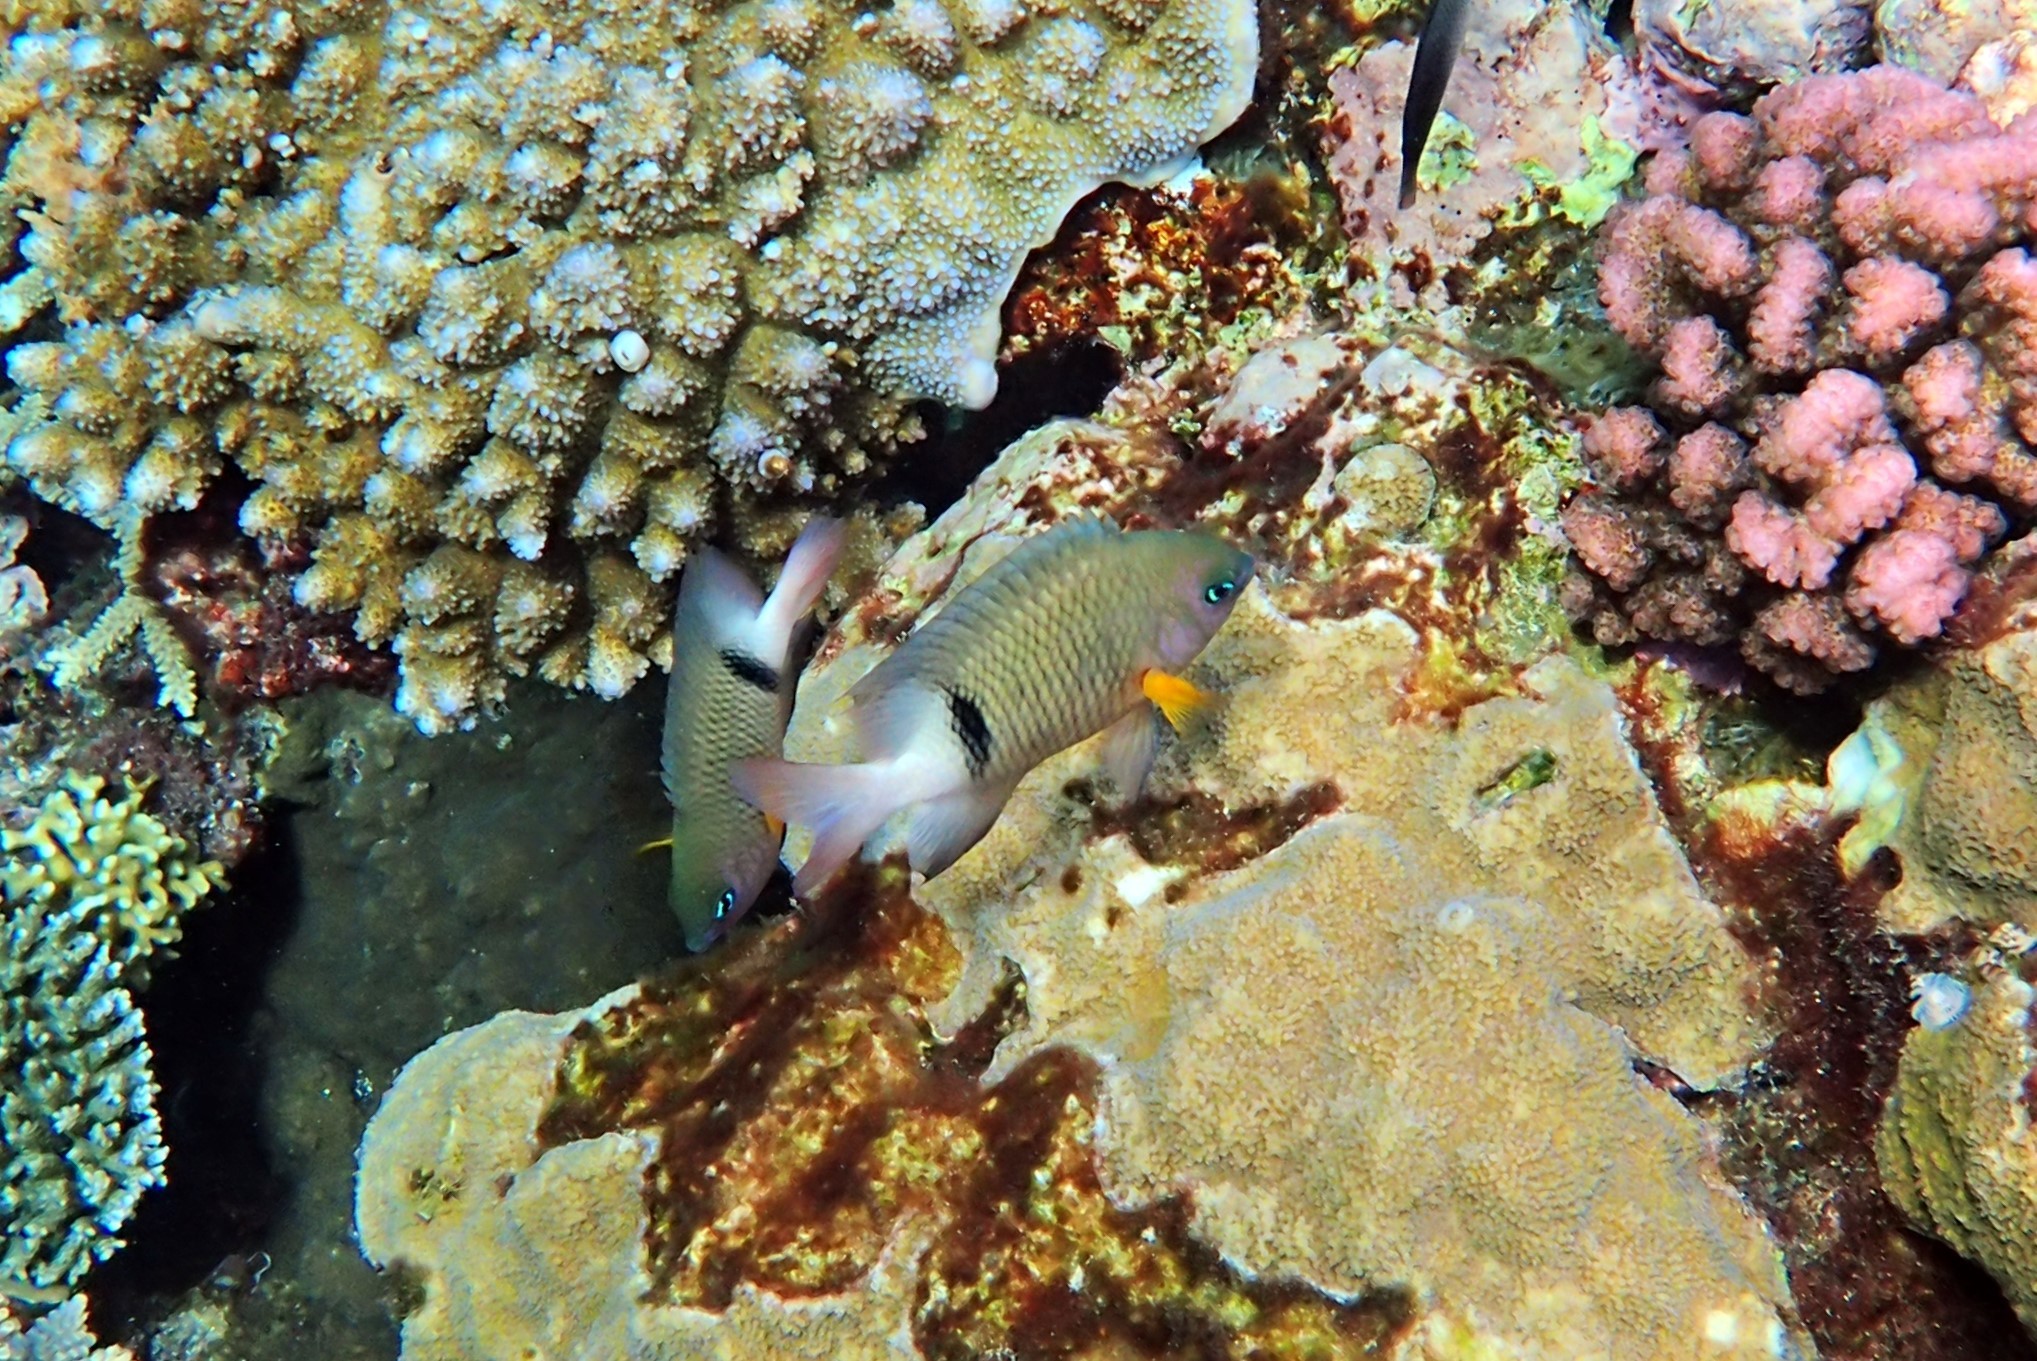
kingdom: Animalia
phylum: Chordata
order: Perciformes
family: Pomacentridae
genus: Plectroglyphidodon
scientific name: Plectroglyphidodon dickii
